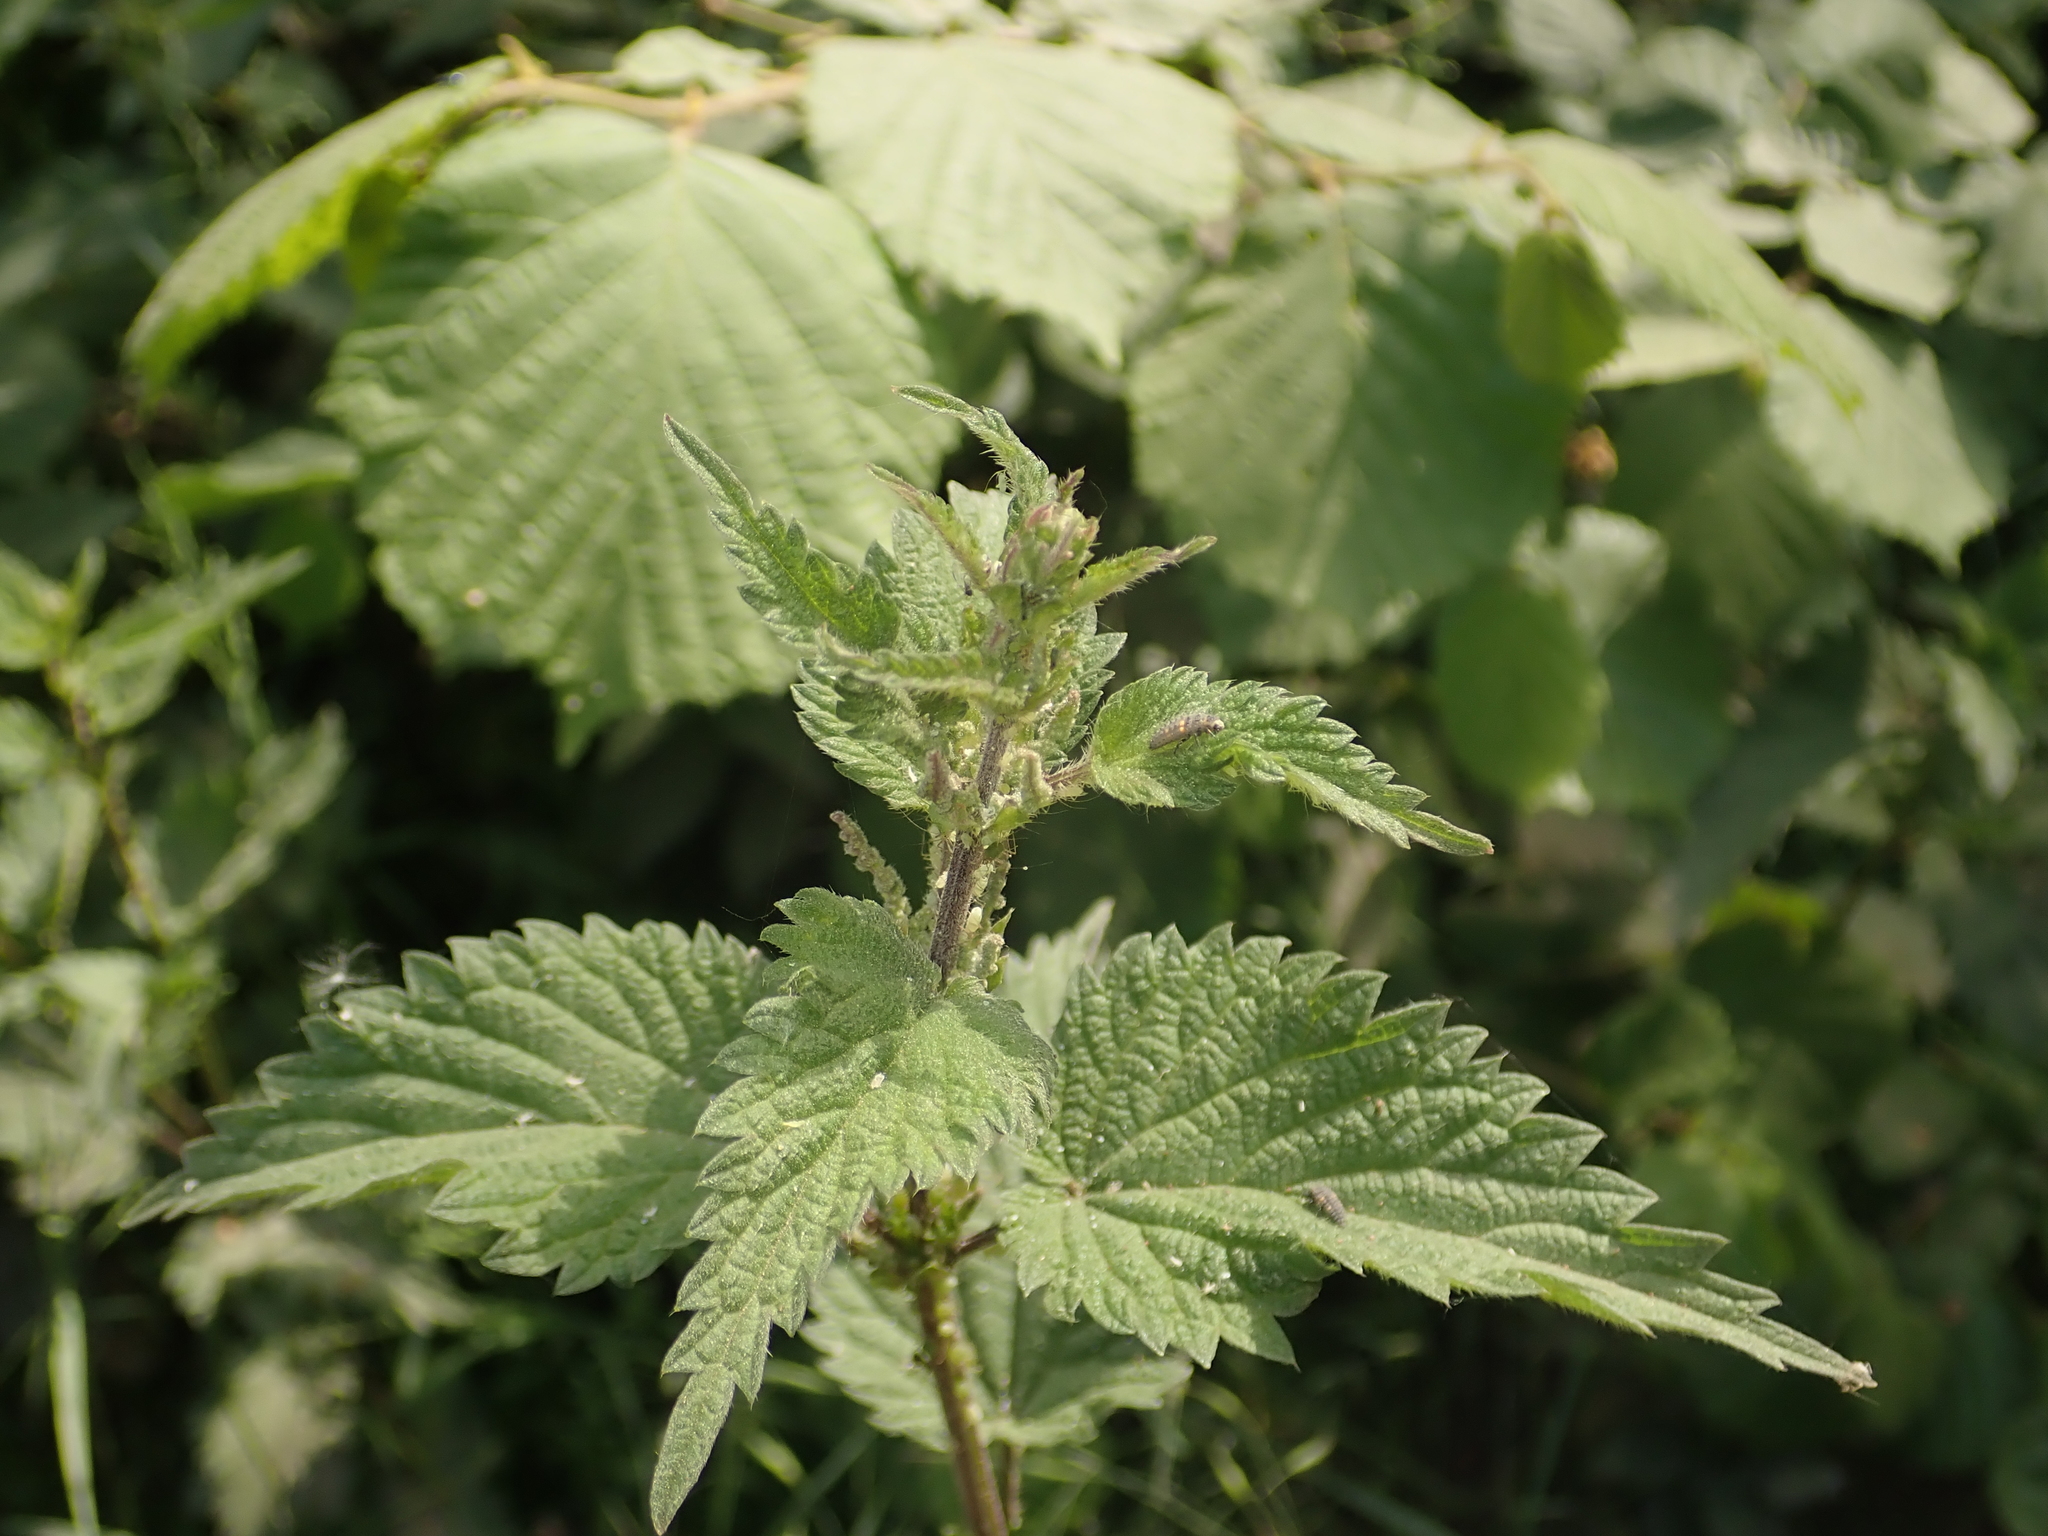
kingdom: Plantae
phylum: Tracheophyta
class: Magnoliopsida
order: Rosales
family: Urticaceae
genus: Urtica
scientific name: Urtica dioica
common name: Common nettle
